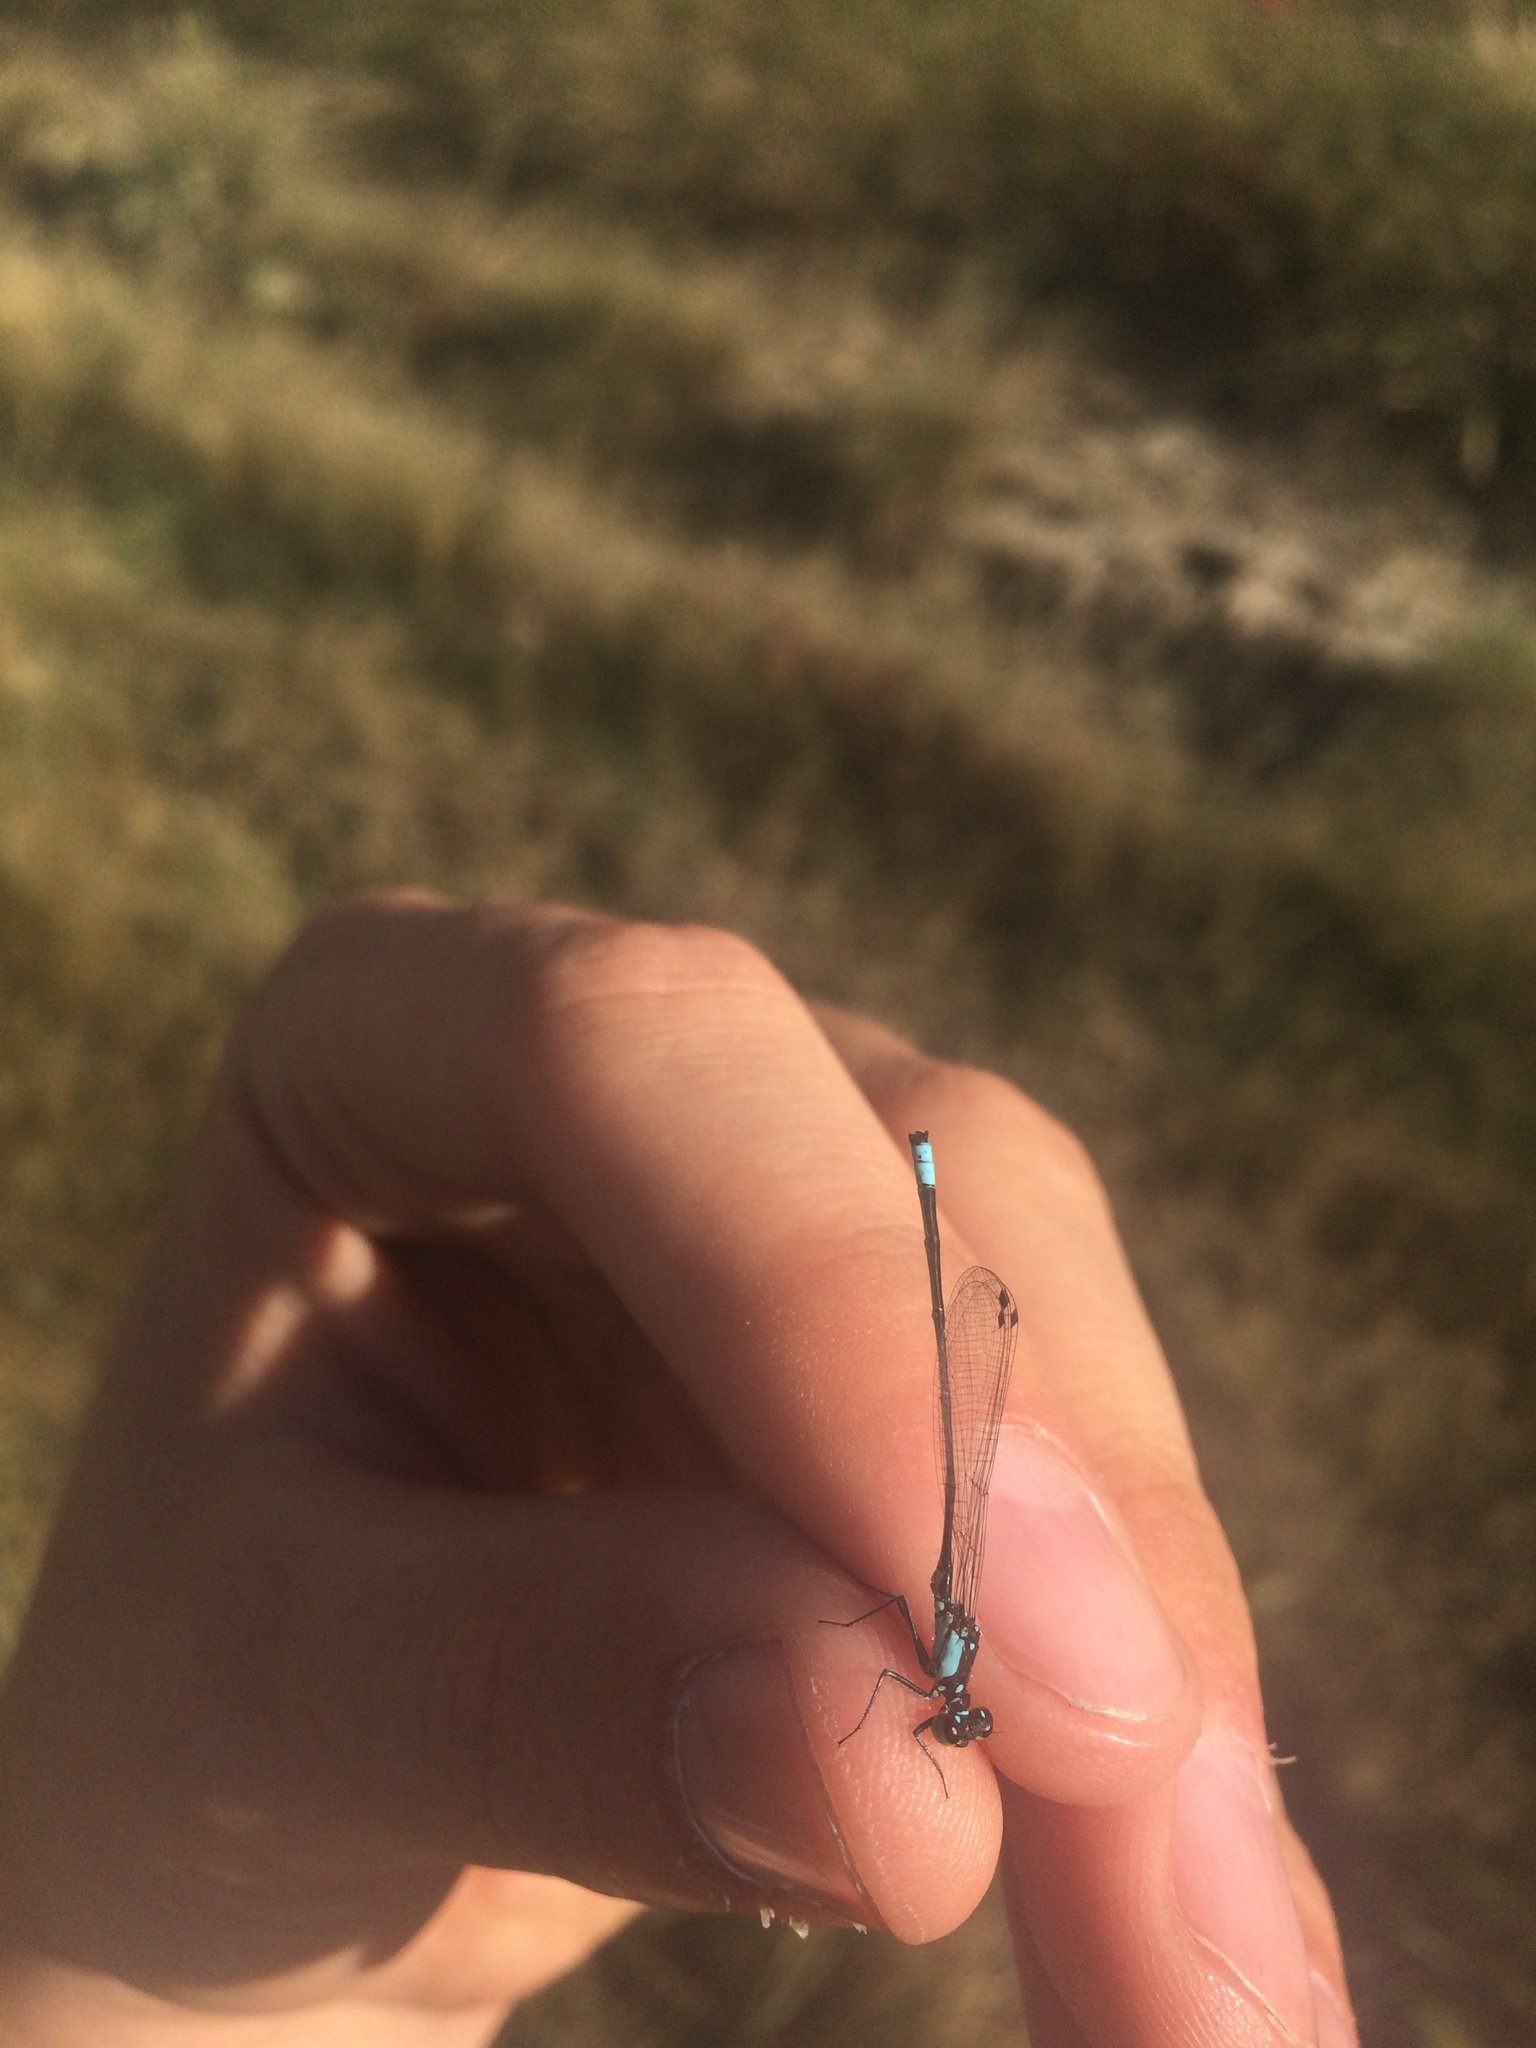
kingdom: Animalia
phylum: Arthropoda
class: Insecta
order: Odonata
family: Coenagrionidae
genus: Ischnura
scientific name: Ischnura cervula
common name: Pacific forktail
